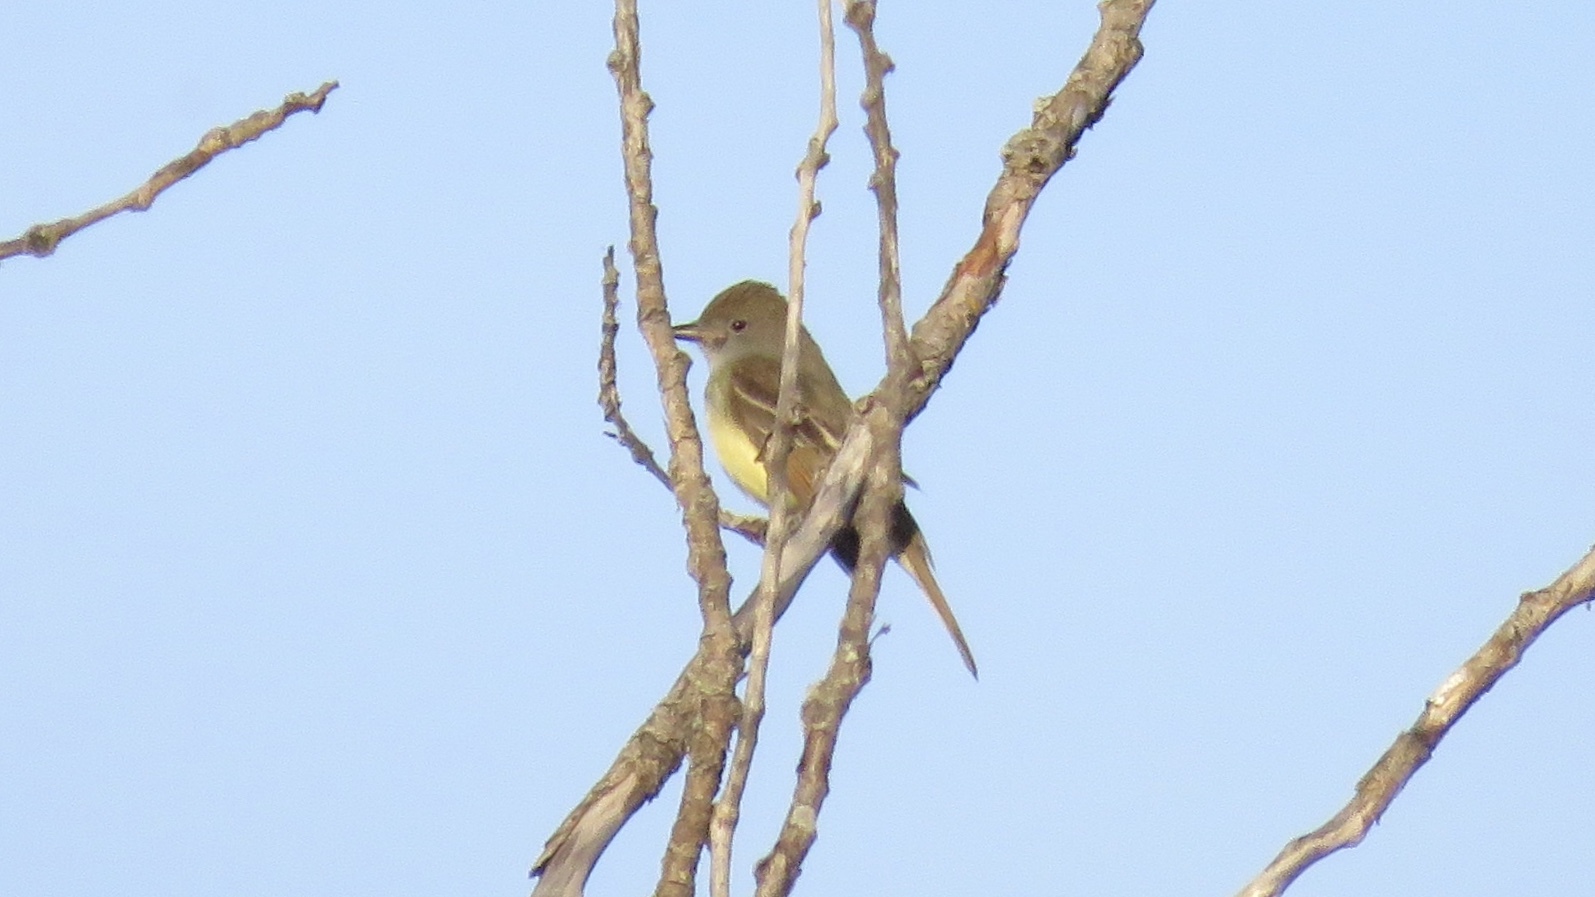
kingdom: Animalia
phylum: Chordata
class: Aves
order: Passeriformes
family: Tyrannidae
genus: Myiarchus
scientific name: Myiarchus crinitus
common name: Great crested flycatcher
